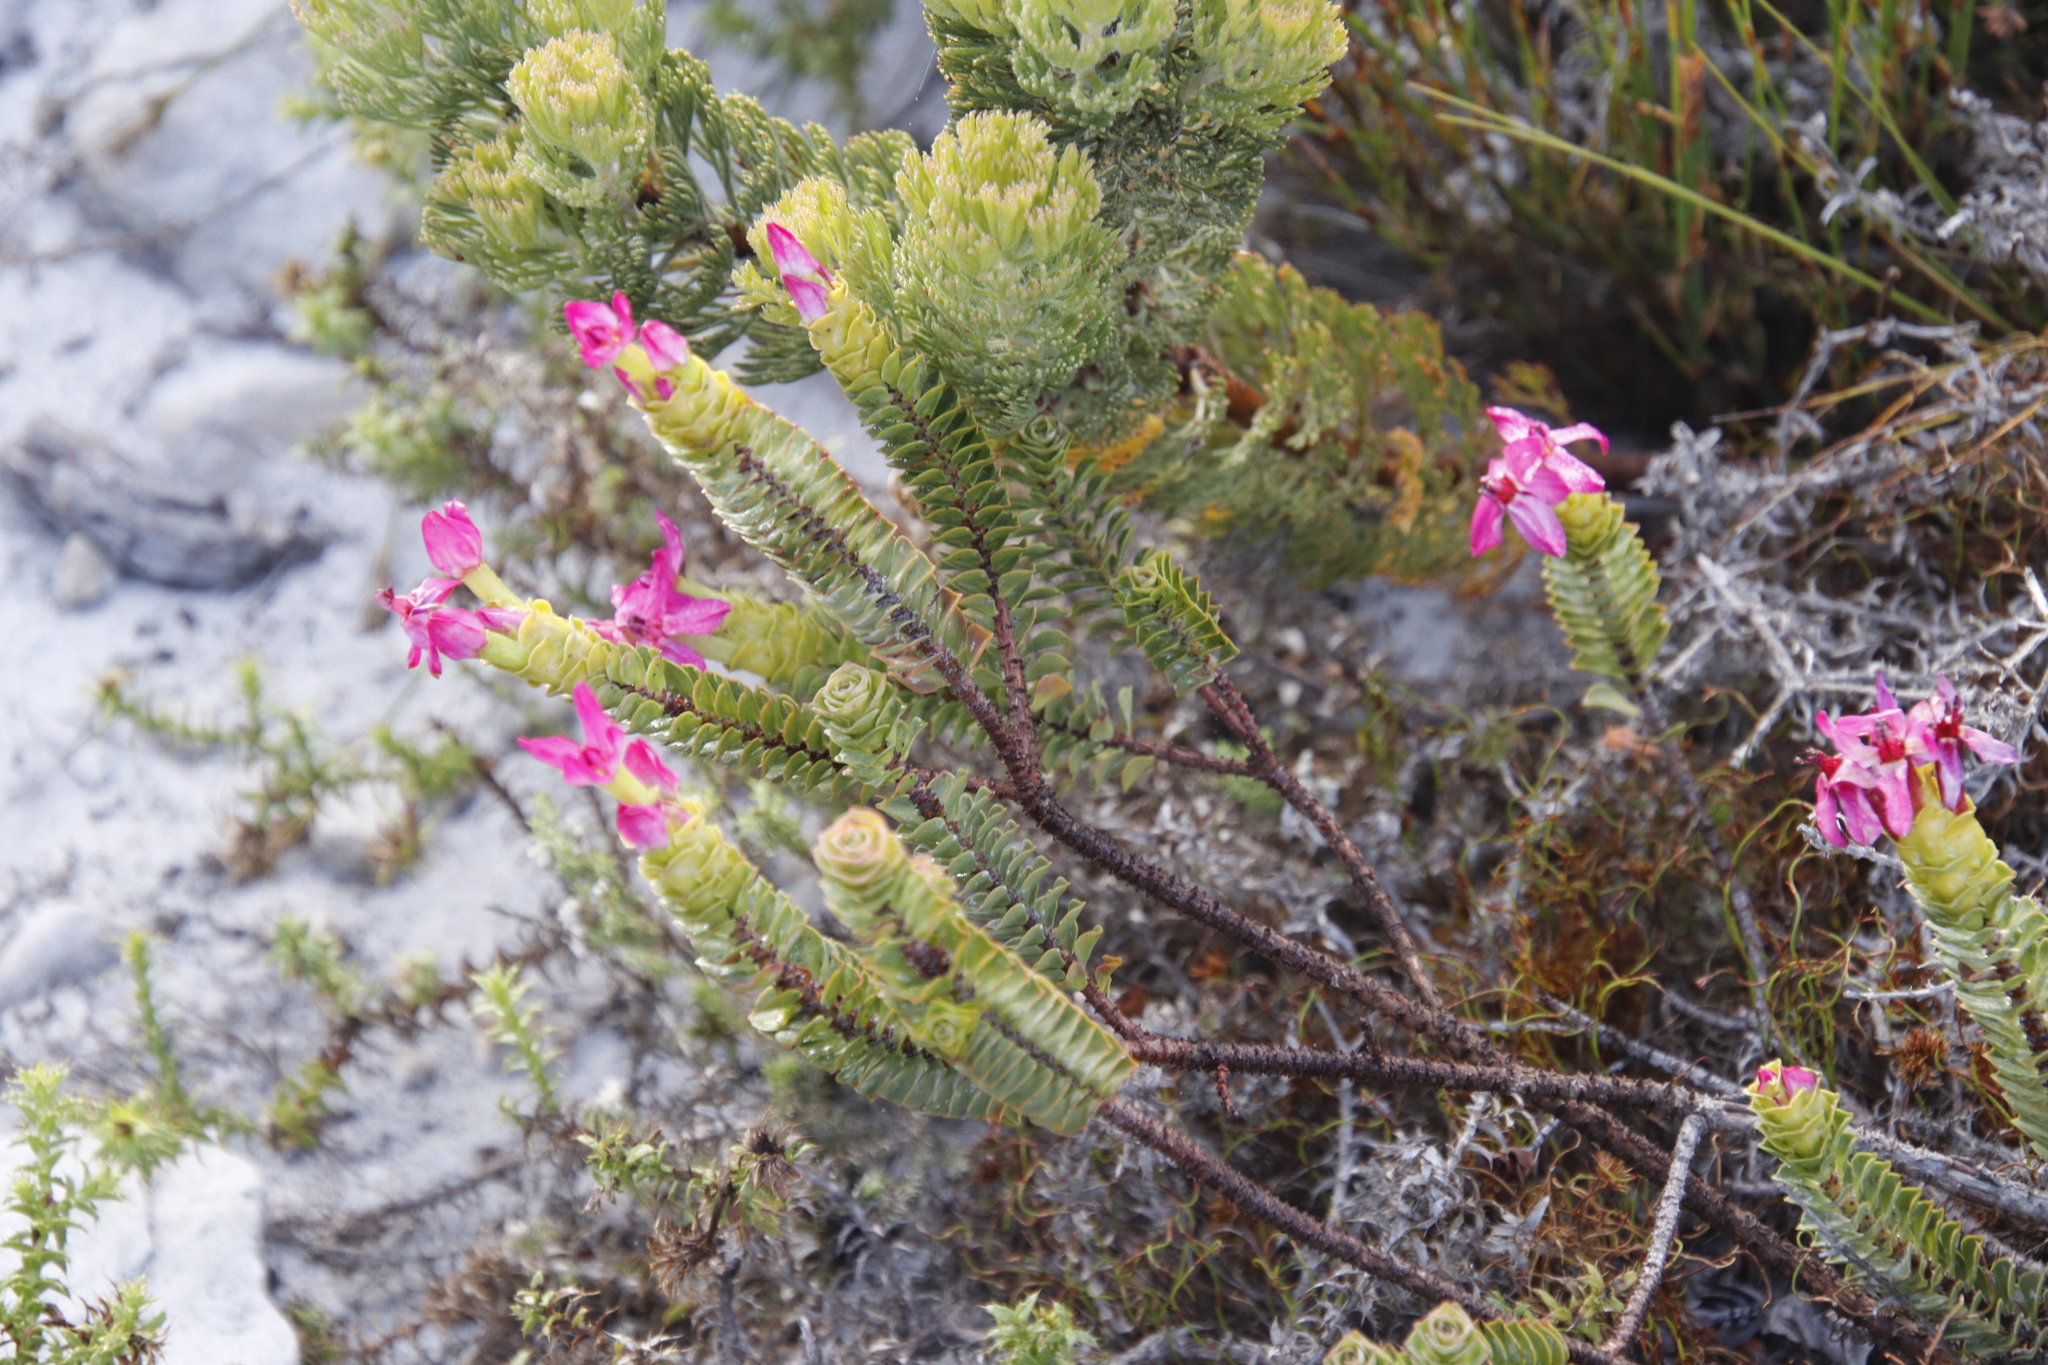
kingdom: Plantae
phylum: Tracheophyta
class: Magnoliopsida
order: Myrtales
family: Penaeaceae
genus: Saltera
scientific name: Saltera sarcocolla
